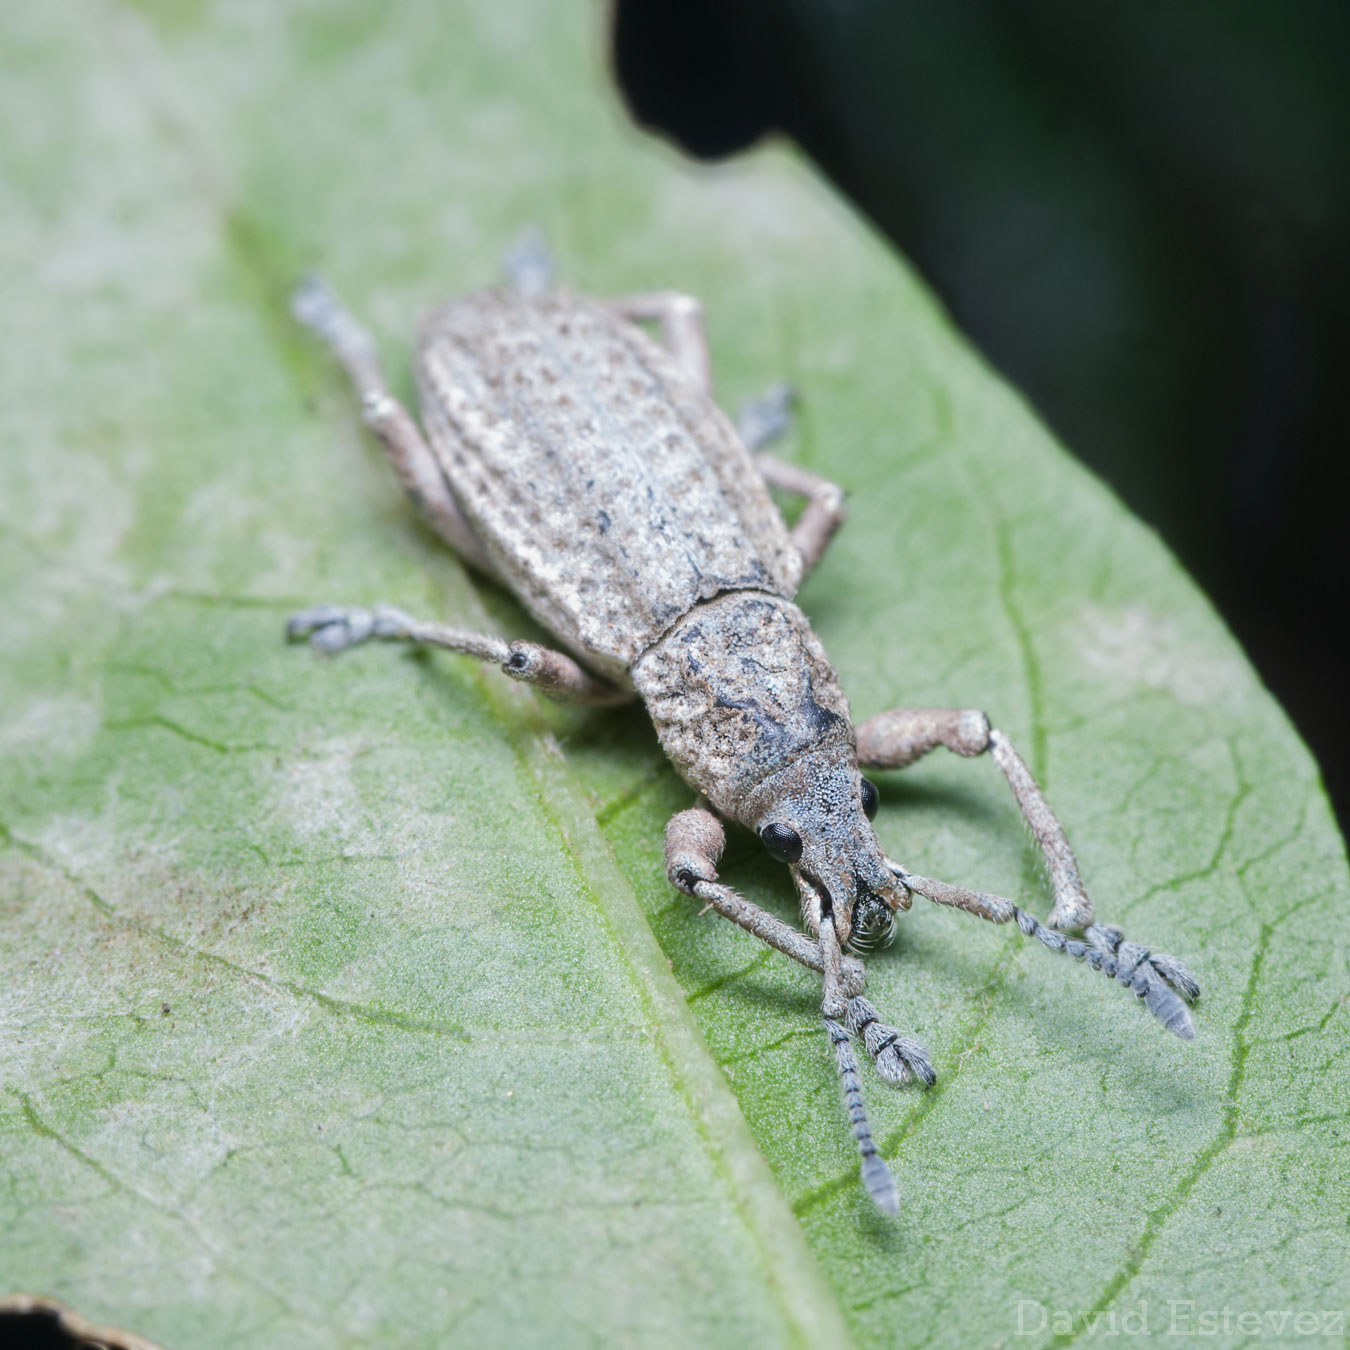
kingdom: Animalia
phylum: Arthropoda
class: Insecta
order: Coleoptera
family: Curculionidae
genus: Compsus
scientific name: Compsus canescens
